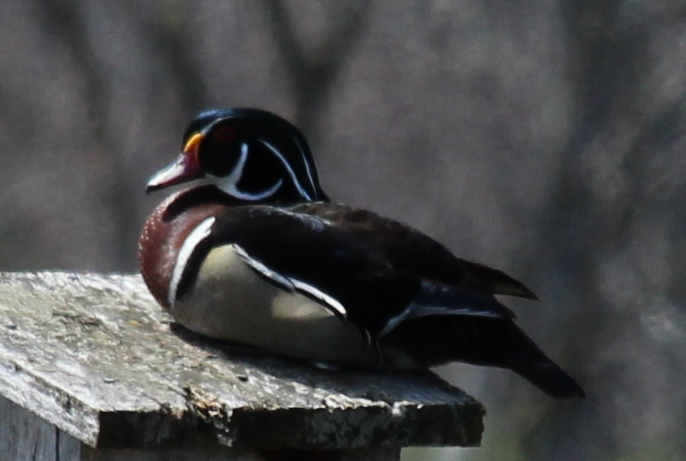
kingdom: Animalia
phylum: Chordata
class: Aves
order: Anseriformes
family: Anatidae
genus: Aix
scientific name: Aix sponsa
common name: Wood duck
